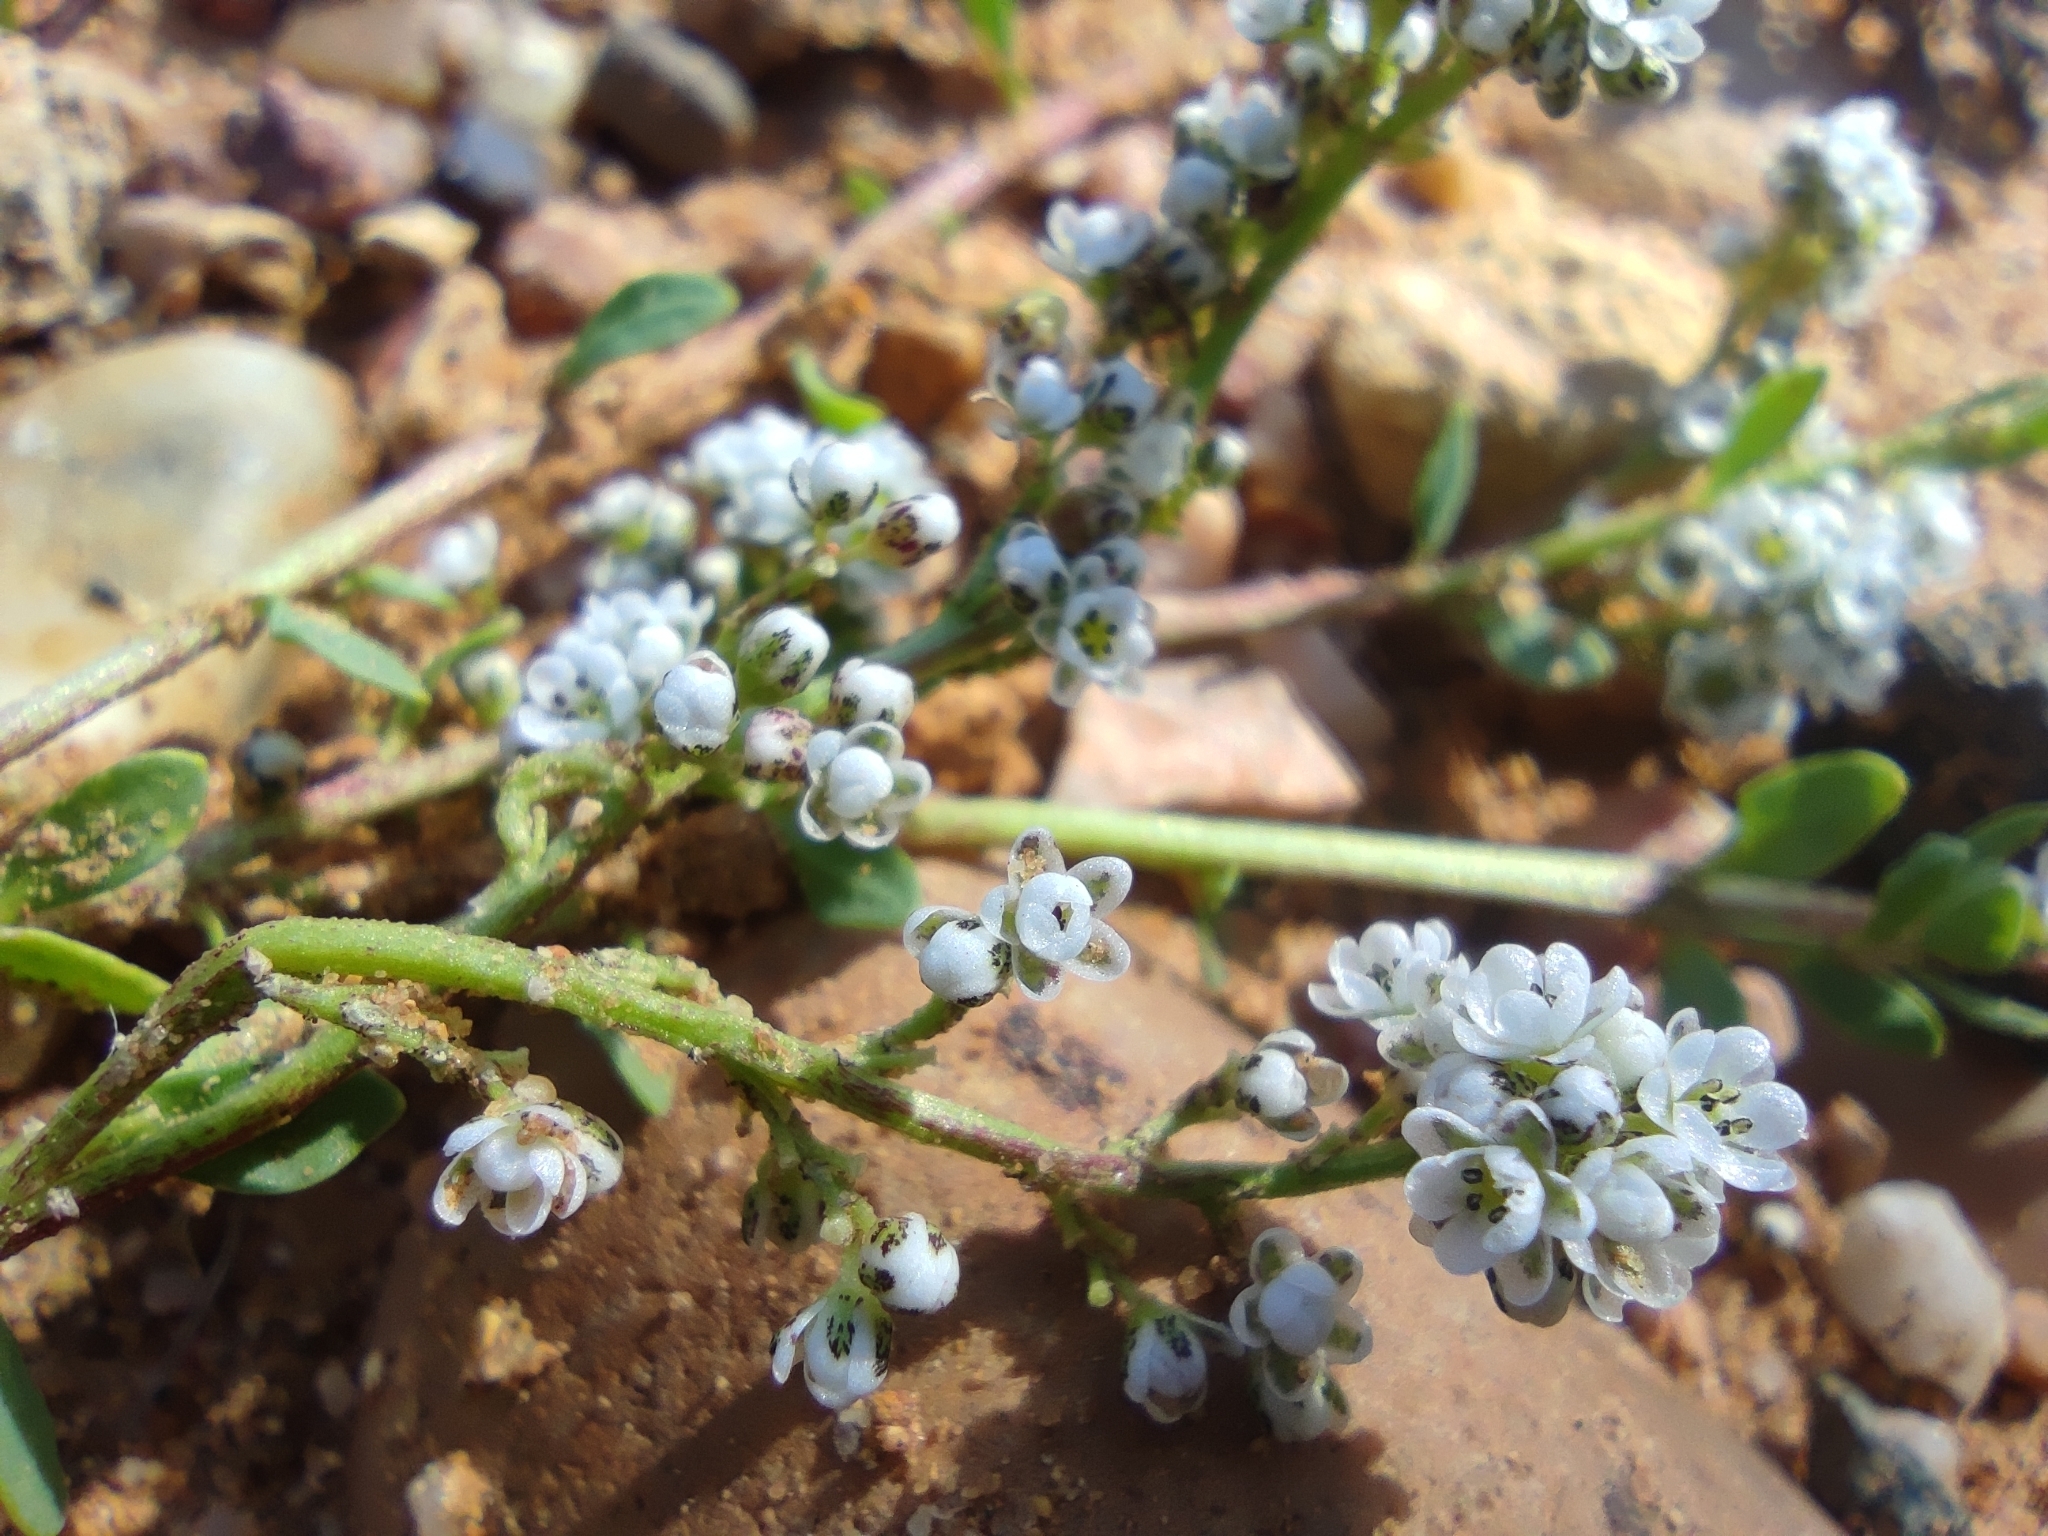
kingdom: Plantae
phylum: Tracheophyta
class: Magnoliopsida
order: Caryophyllales
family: Caryophyllaceae
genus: Corrigiola
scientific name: Corrigiola litoralis
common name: Strapwort
